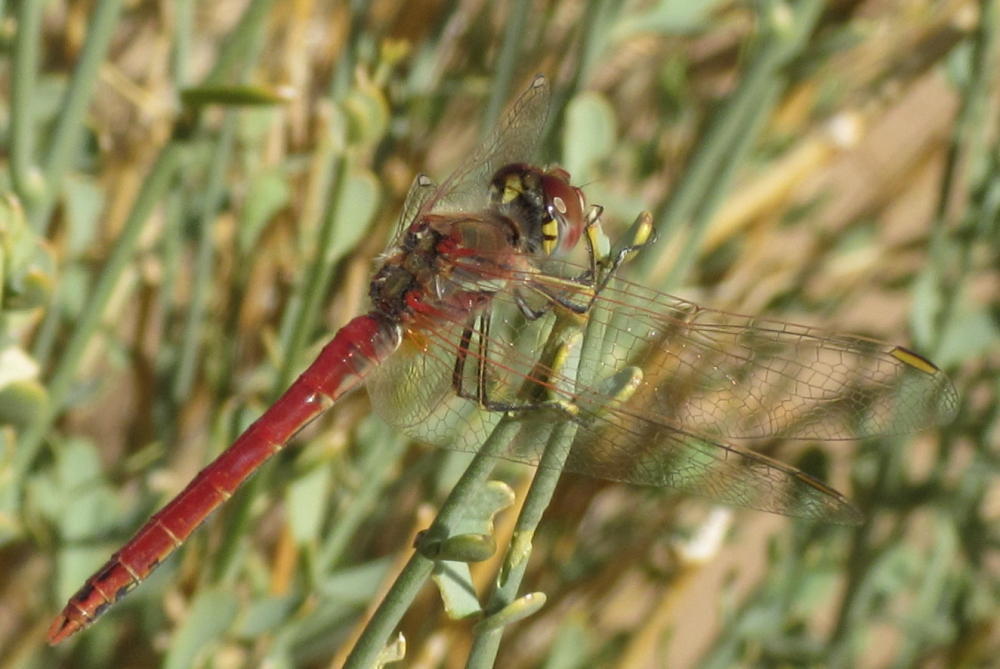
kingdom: Animalia
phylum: Arthropoda
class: Insecta
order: Odonata
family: Libellulidae
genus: Sympetrum
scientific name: Sympetrum fonscolombii
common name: Red-veined darter
